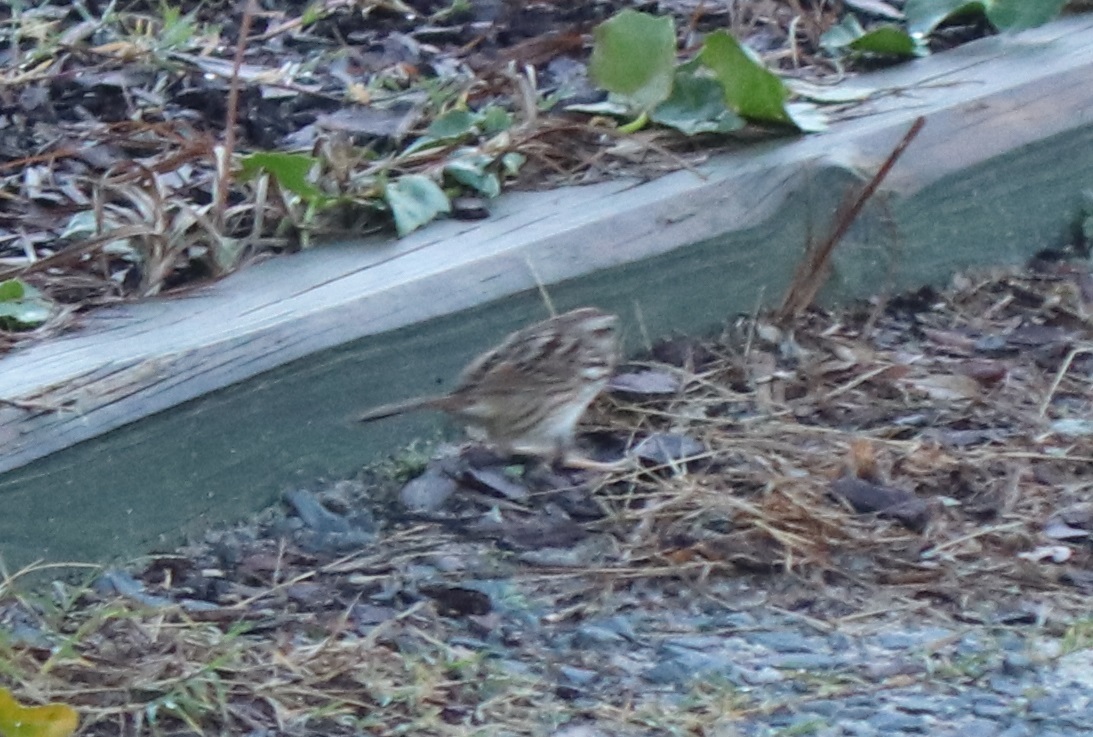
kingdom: Animalia
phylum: Chordata
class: Aves
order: Passeriformes
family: Passerellidae
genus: Melospiza
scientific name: Melospiza melodia
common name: Song sparrow
